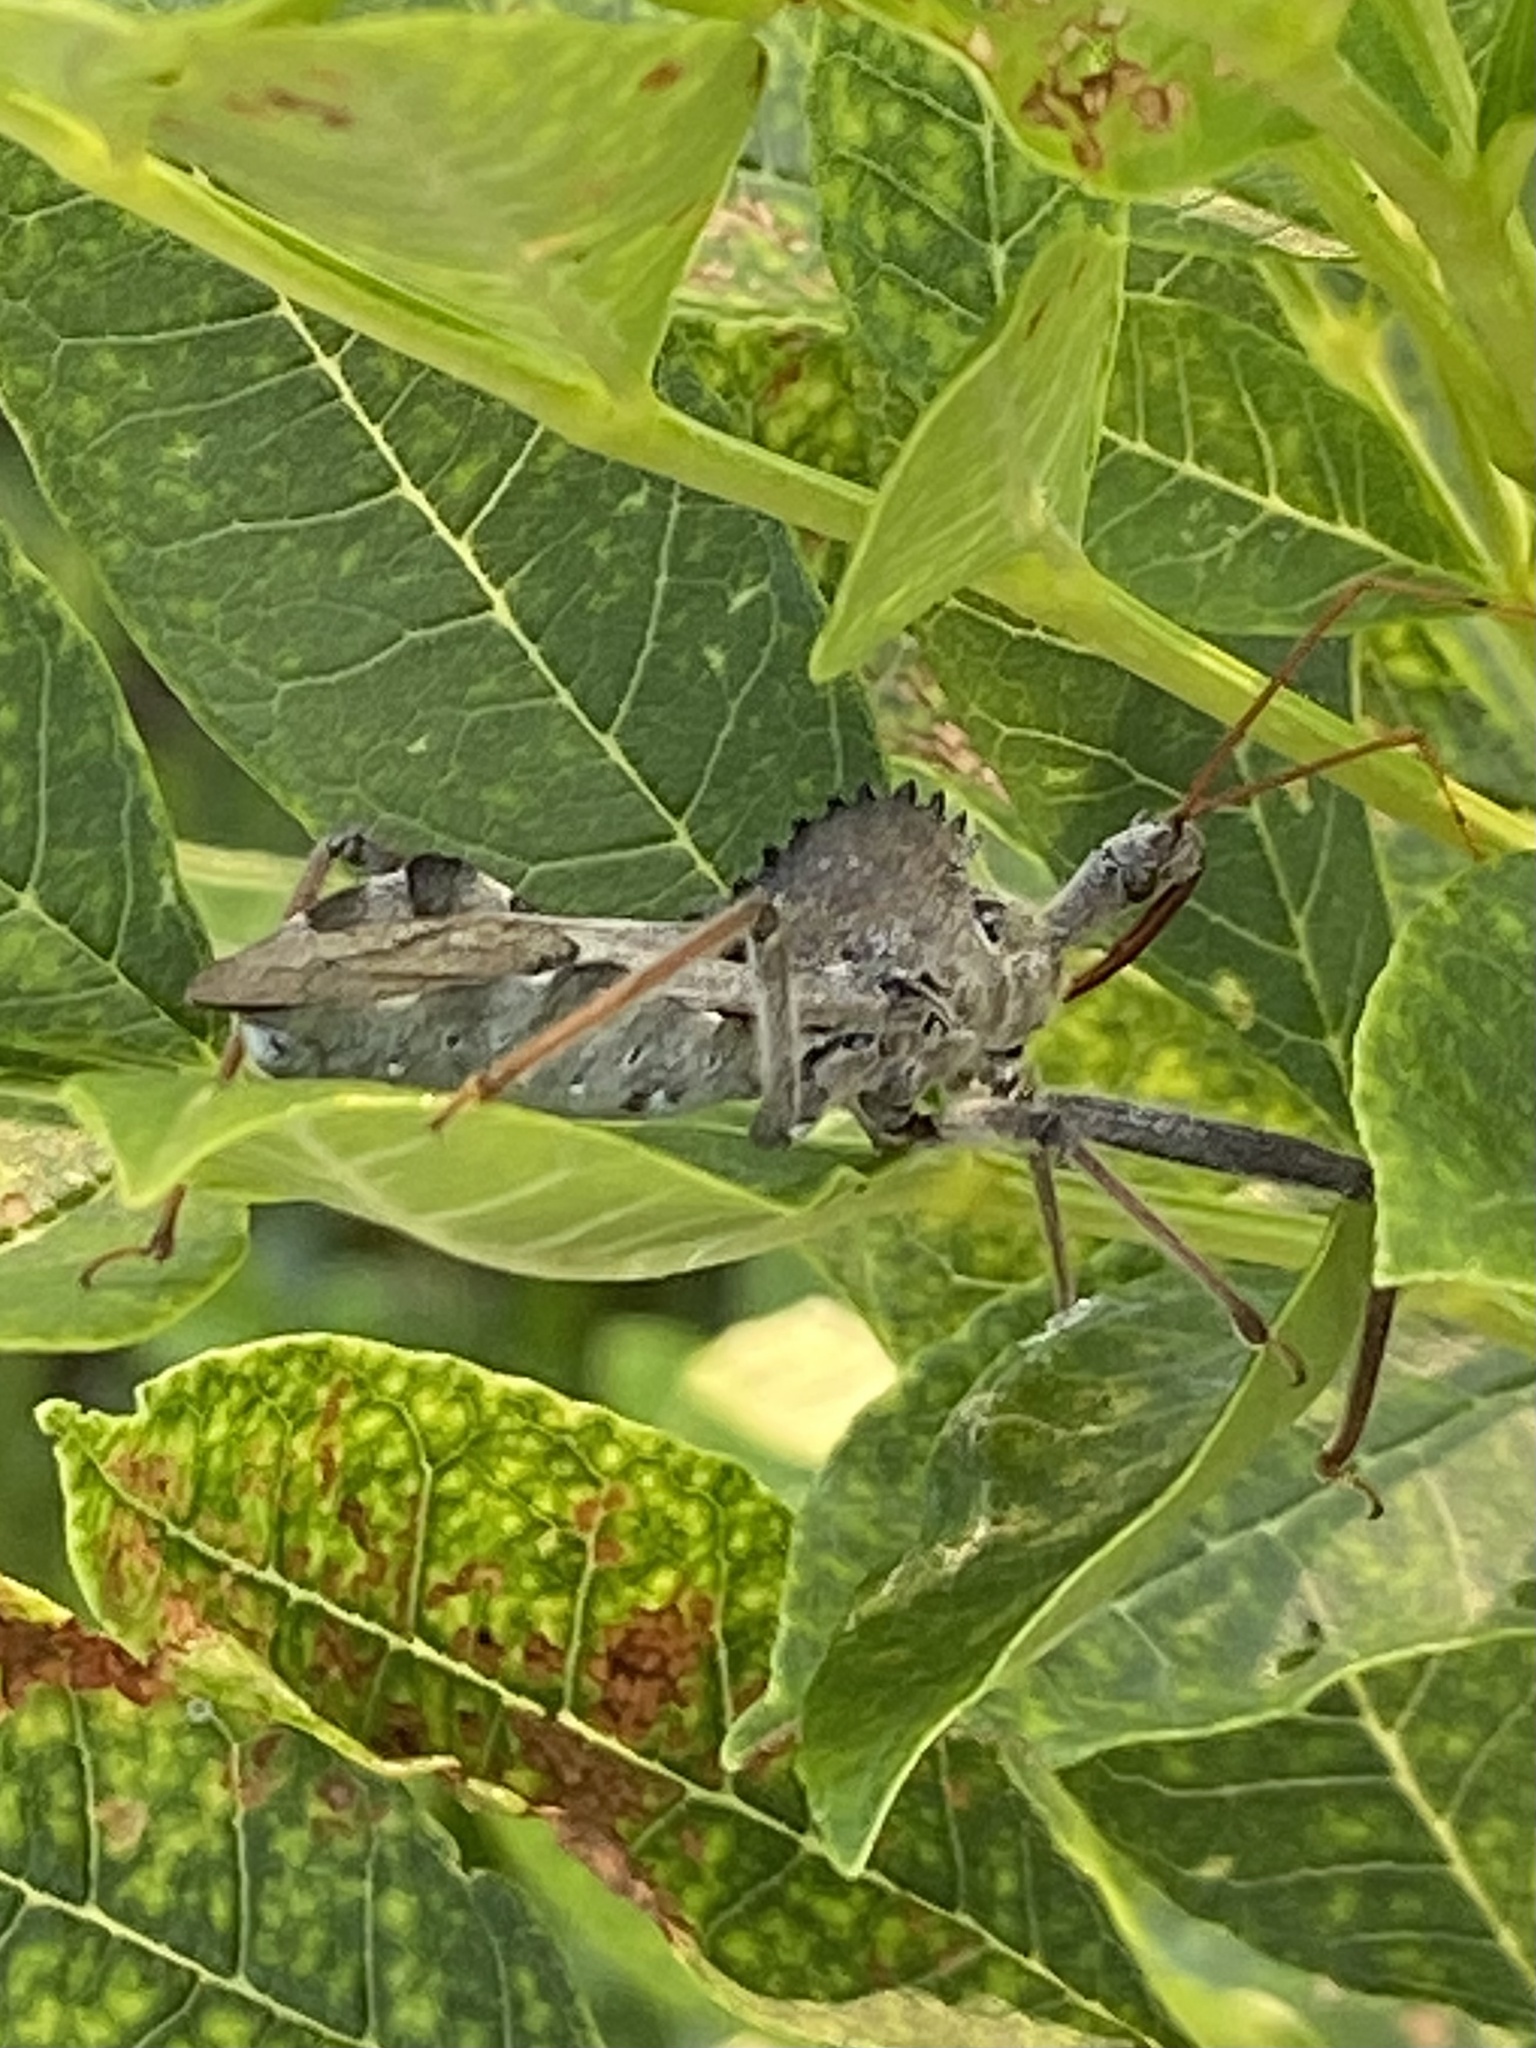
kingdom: Animalia
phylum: Arthropoda
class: Insecta
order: Hemiptera
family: Reduviidae
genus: Arilus
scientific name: Arilus cristatus
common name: North american wheel bug
